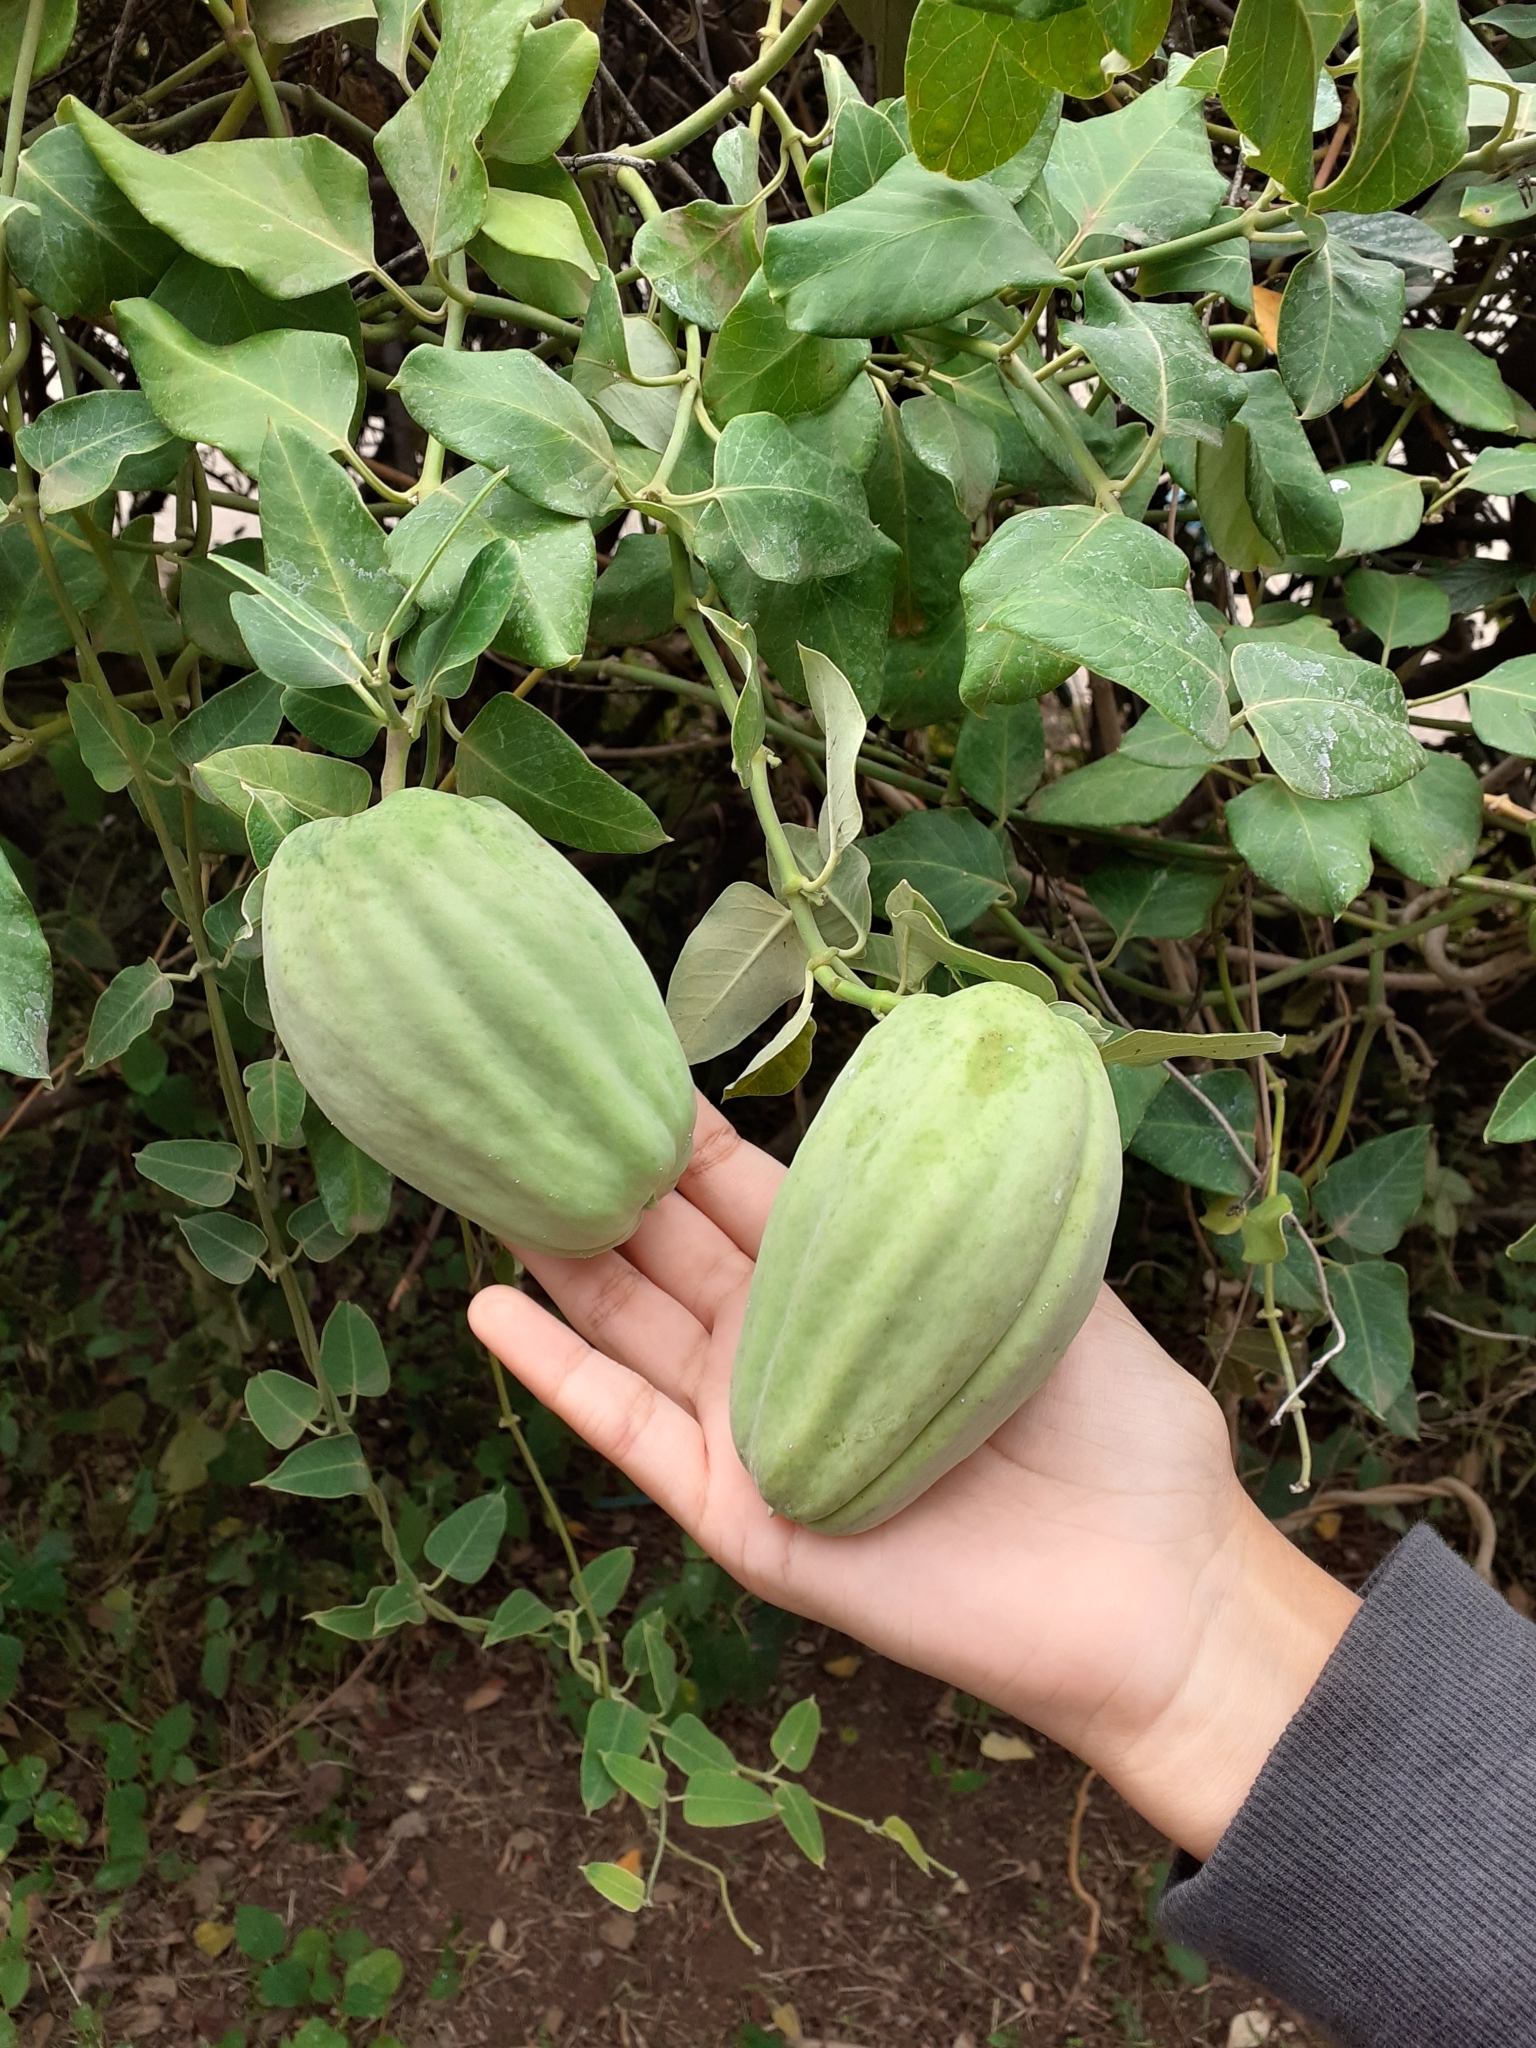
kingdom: Plantae
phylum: Tracheophyta
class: Magnoliopsida
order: Gentianales
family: Apocynaceae
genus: Araujia
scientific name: Araujia sericifera
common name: White bladderflower
